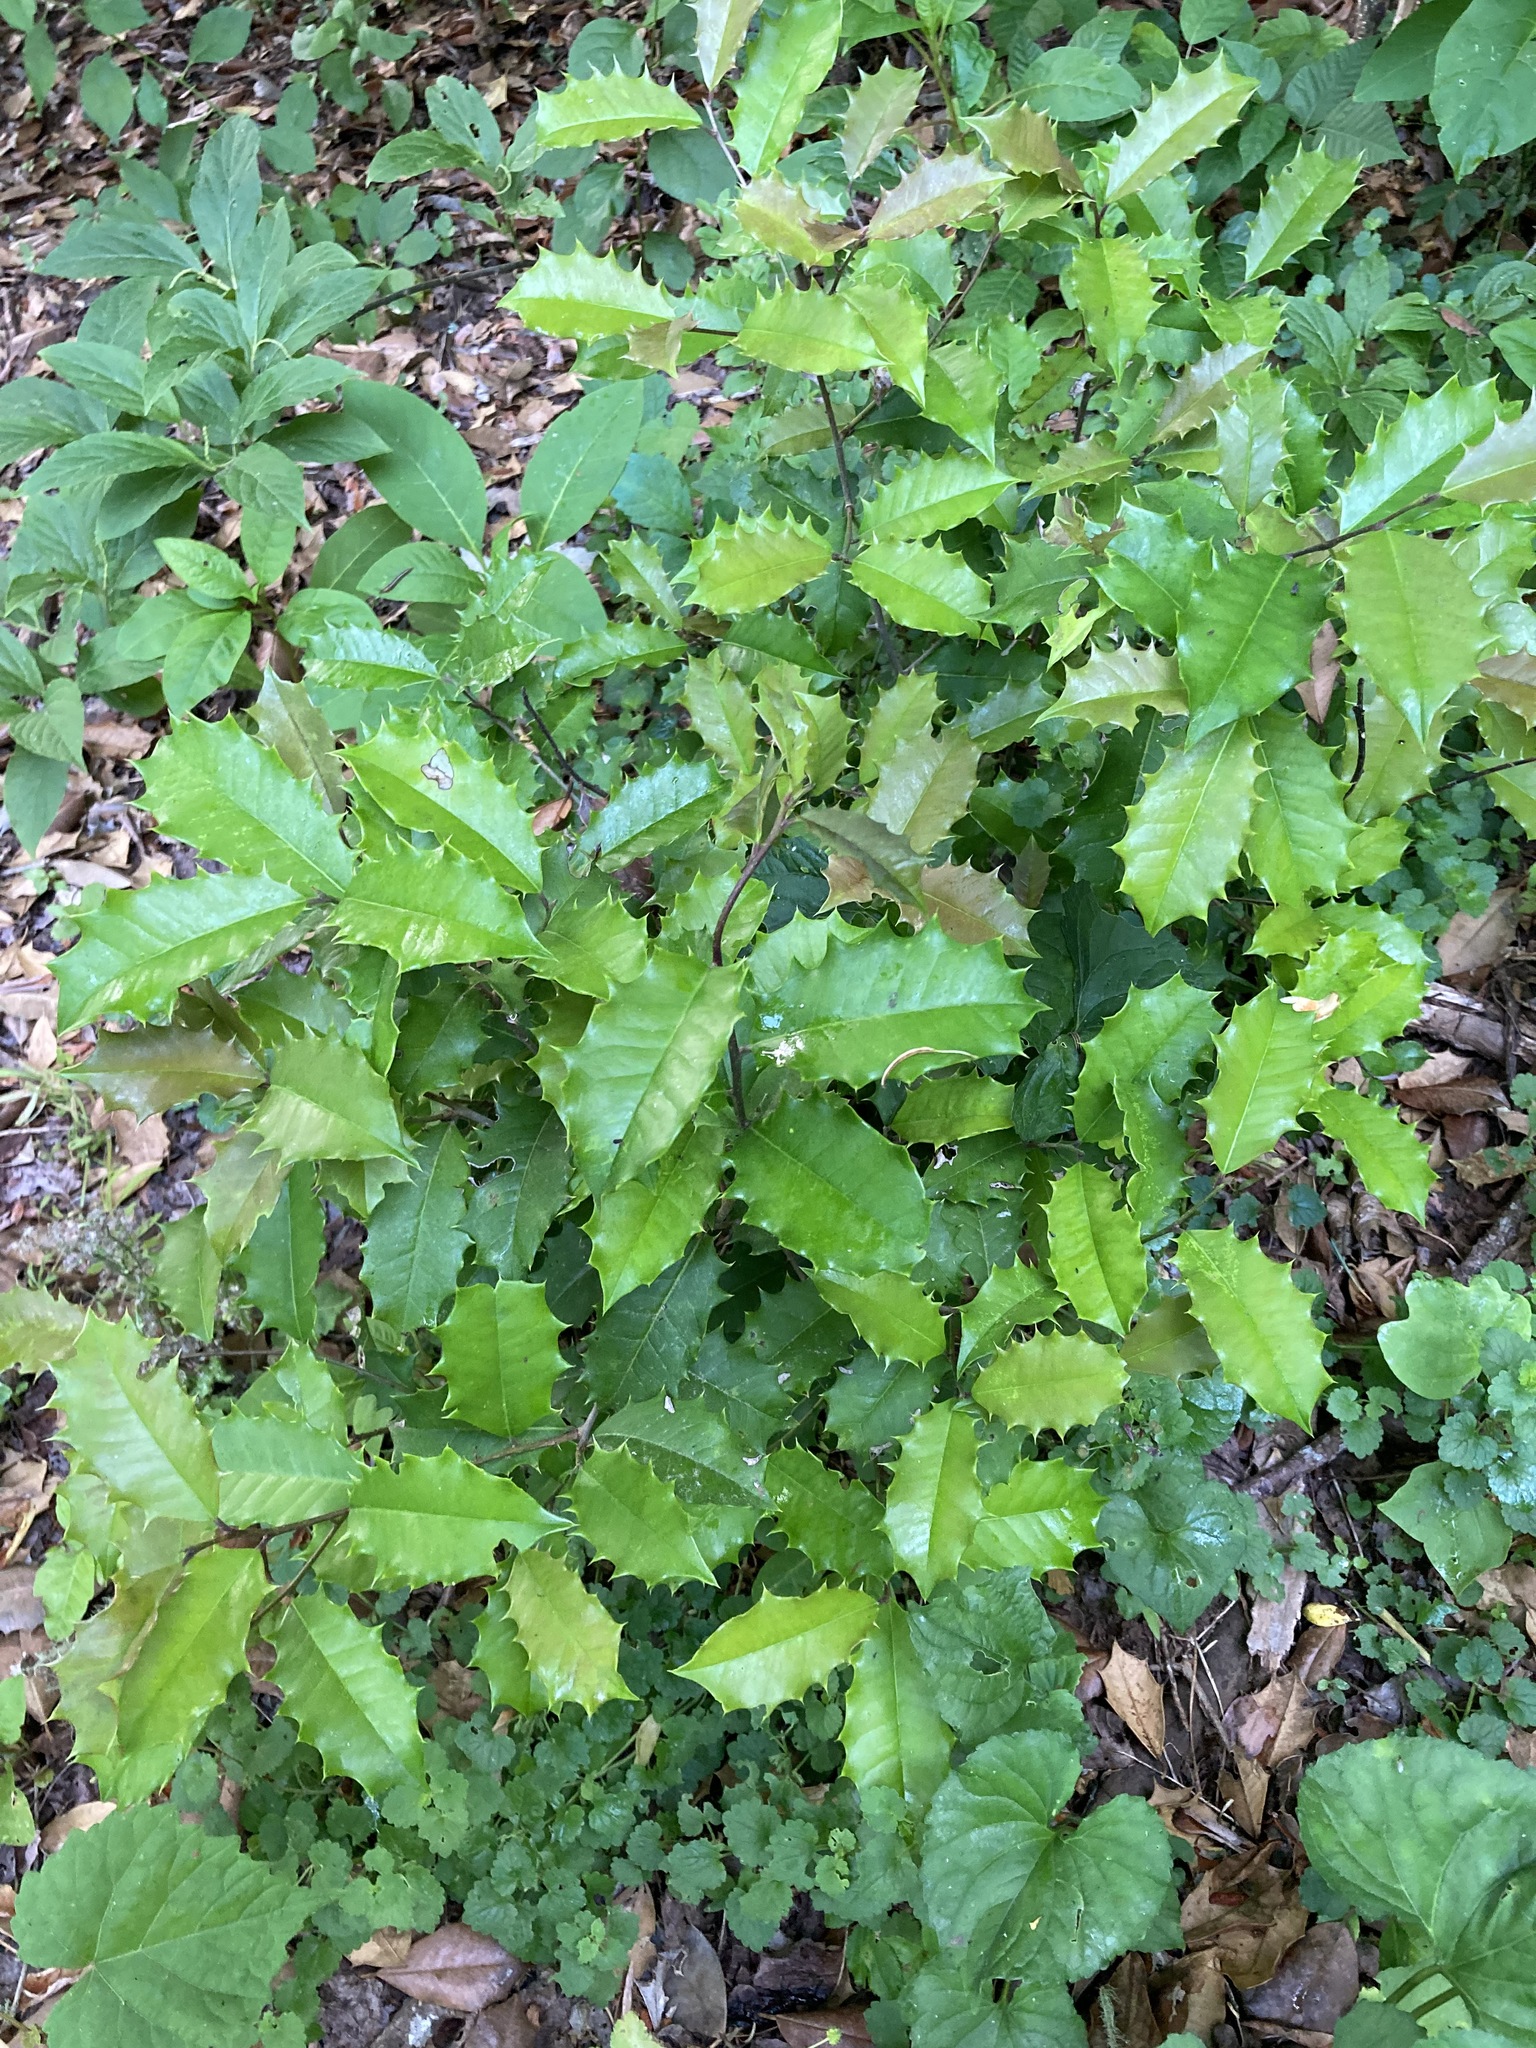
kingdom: Plantae
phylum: Tracheophyta
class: Magnoliopsida
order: Aquifoliales
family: Aquifoliaceae
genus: Ilex
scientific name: Ilex opaca
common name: American holly
